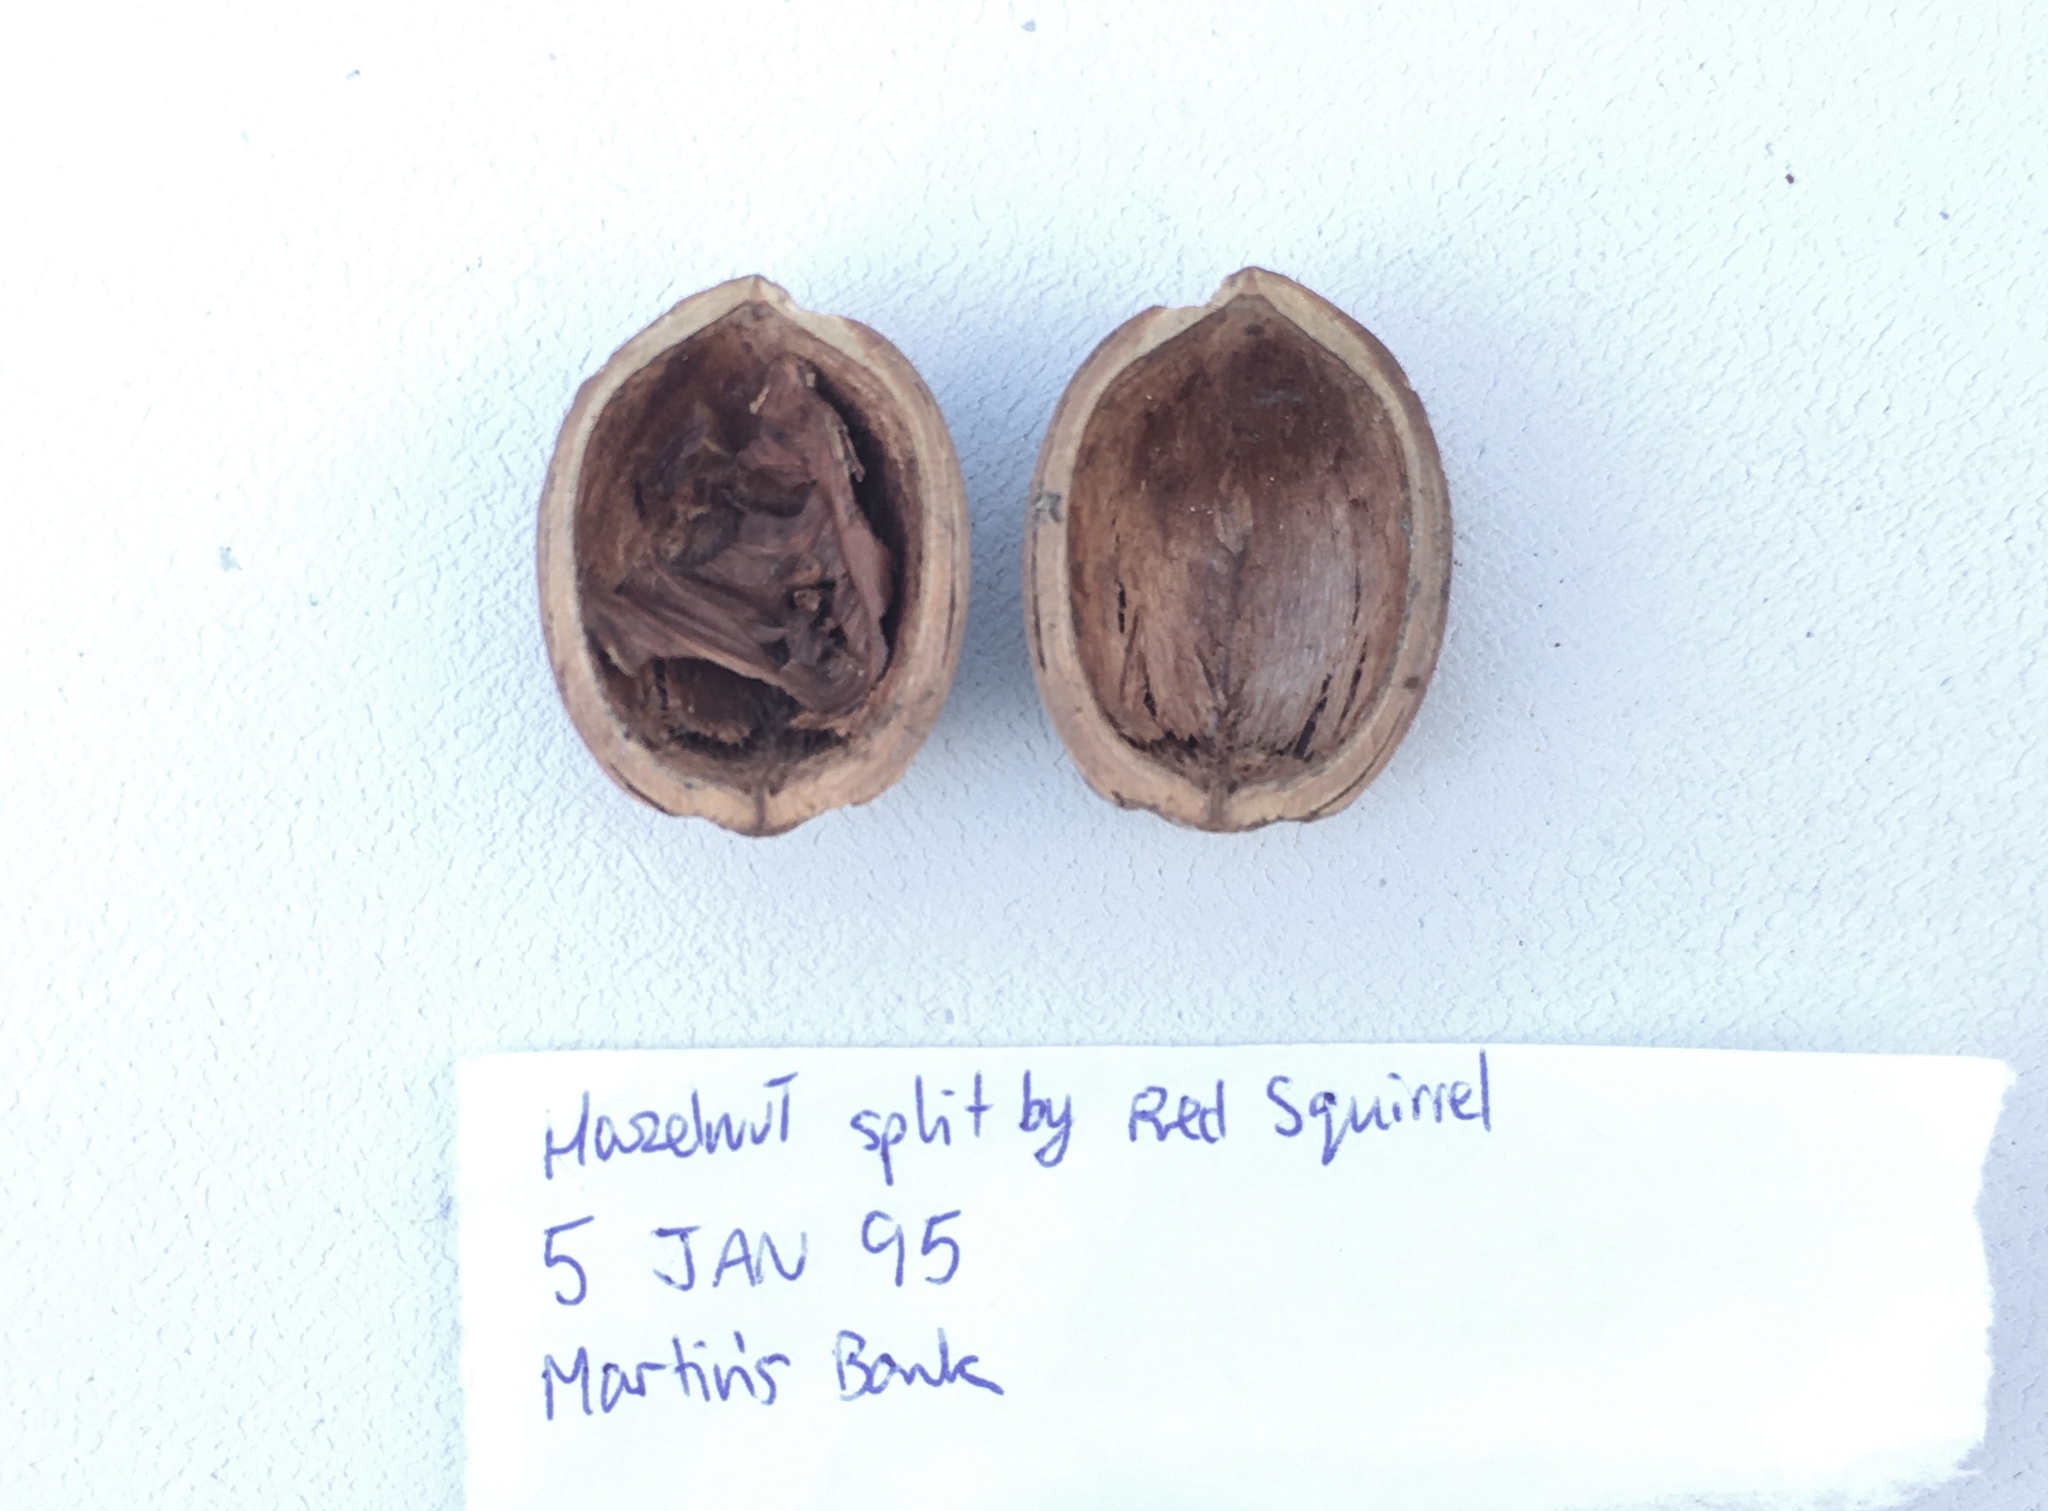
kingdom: Animalia
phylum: Chordata
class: Mammalia
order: Rodentia
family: Sciuridae
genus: Sciurus
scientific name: Sciurus vulgaris
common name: Eurasian red squirrel
